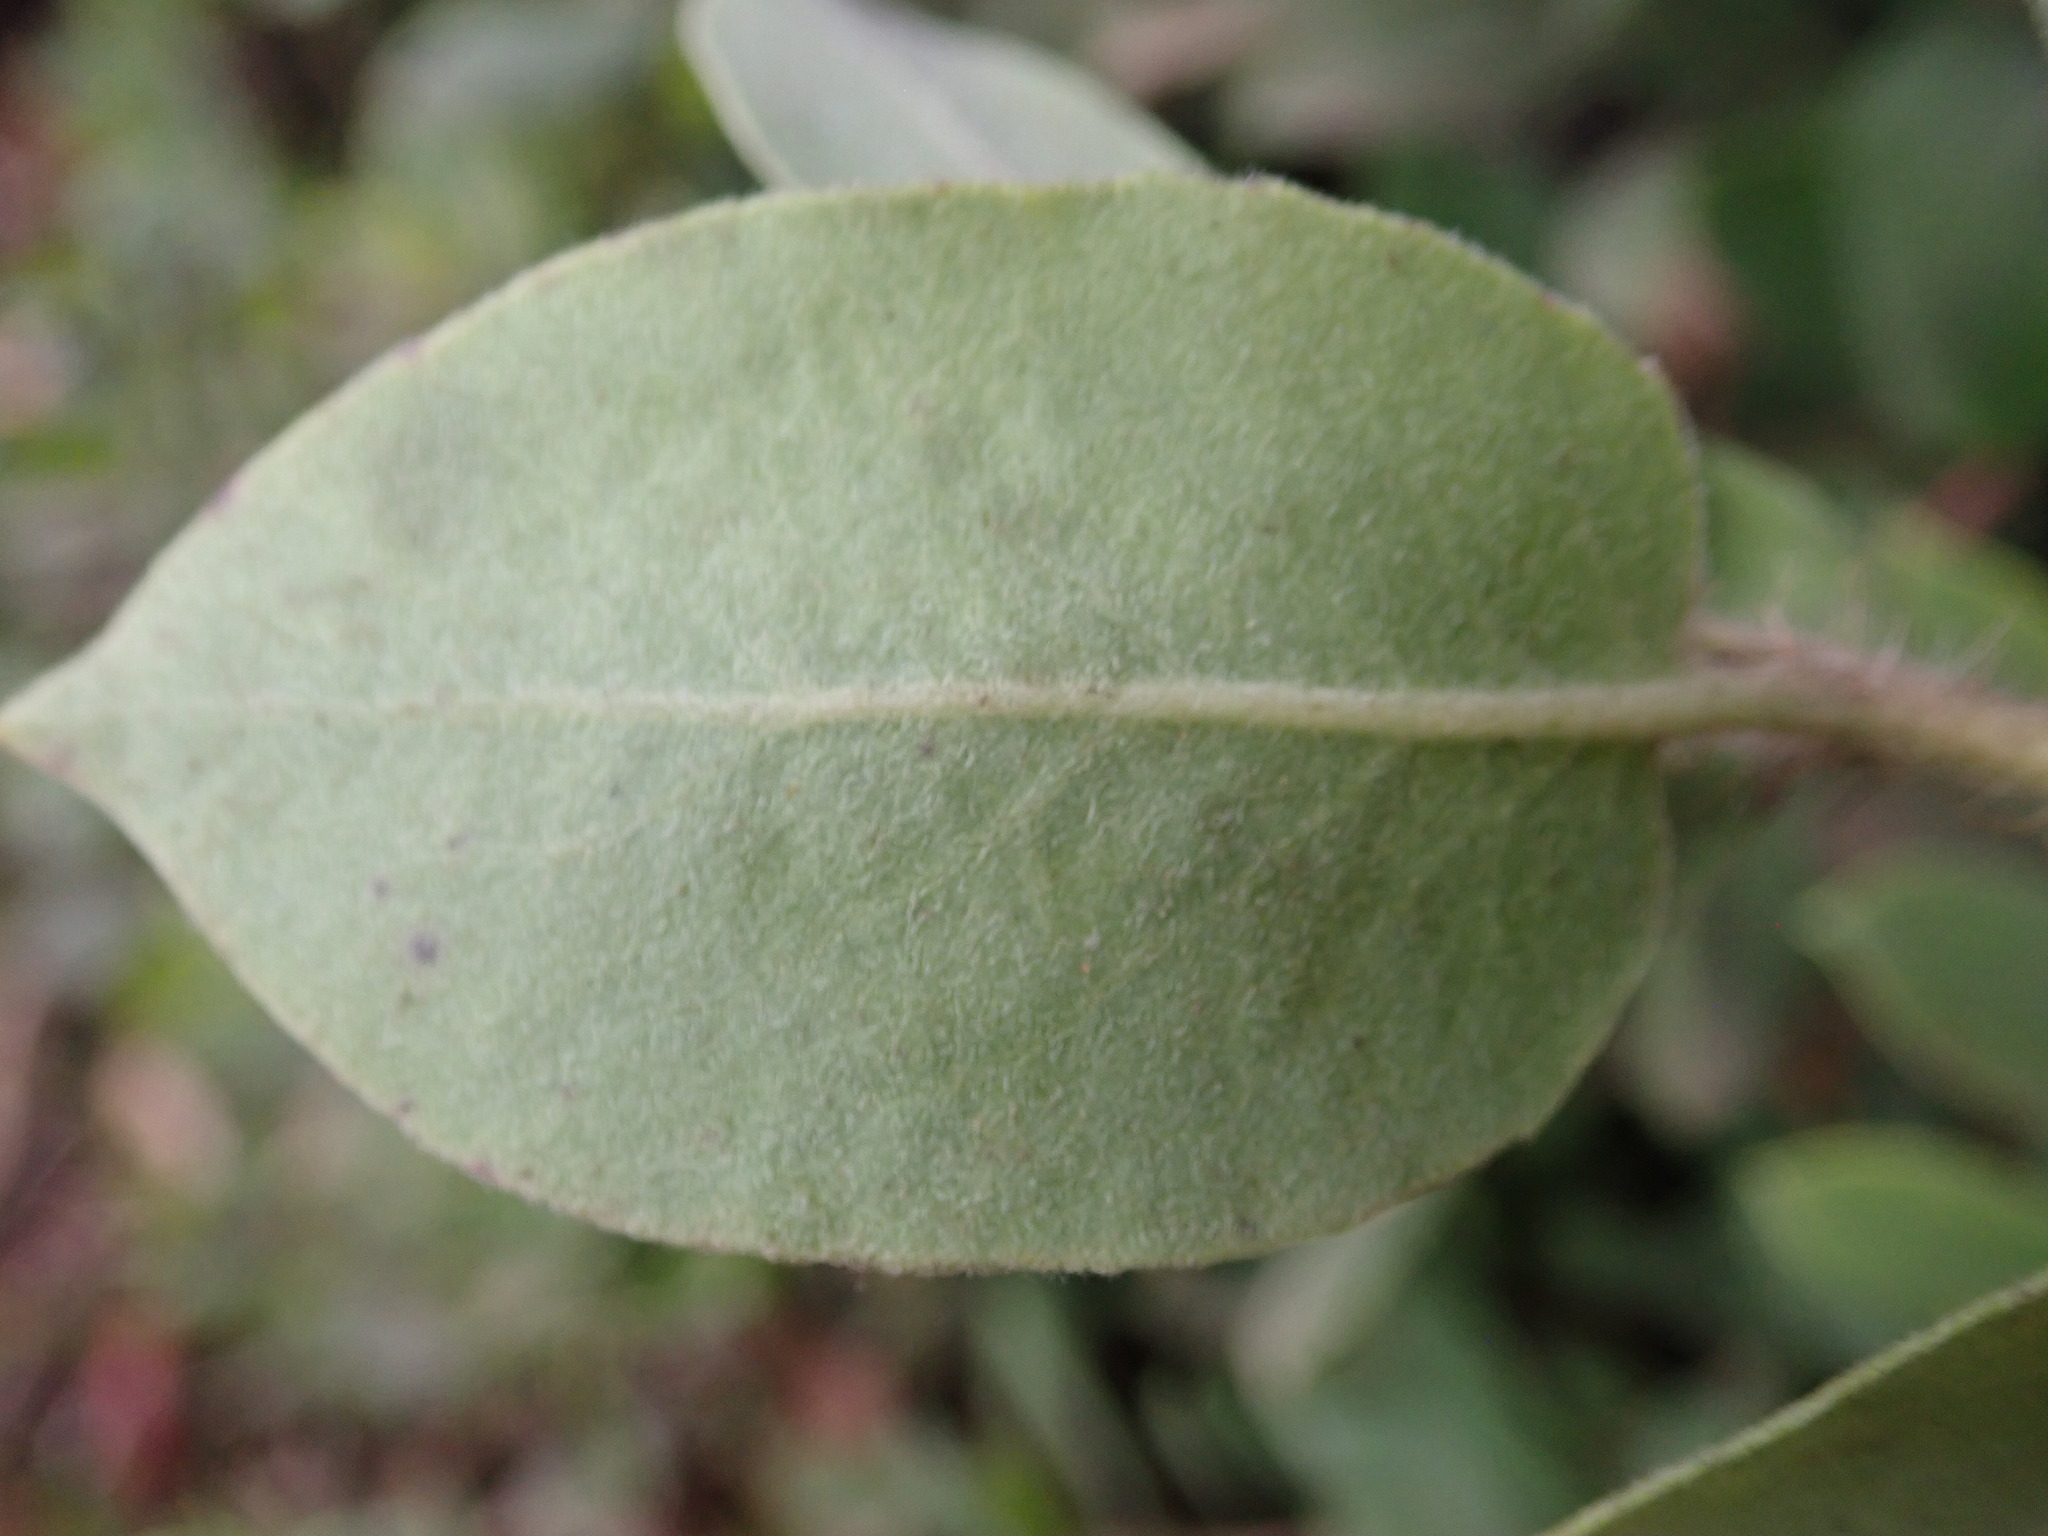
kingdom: Plantae
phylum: Tracheophyta
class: Magnoliopsida
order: Ericales
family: Ericaceae
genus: Arctostaphylos
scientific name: Arctostaphylos crustacea
